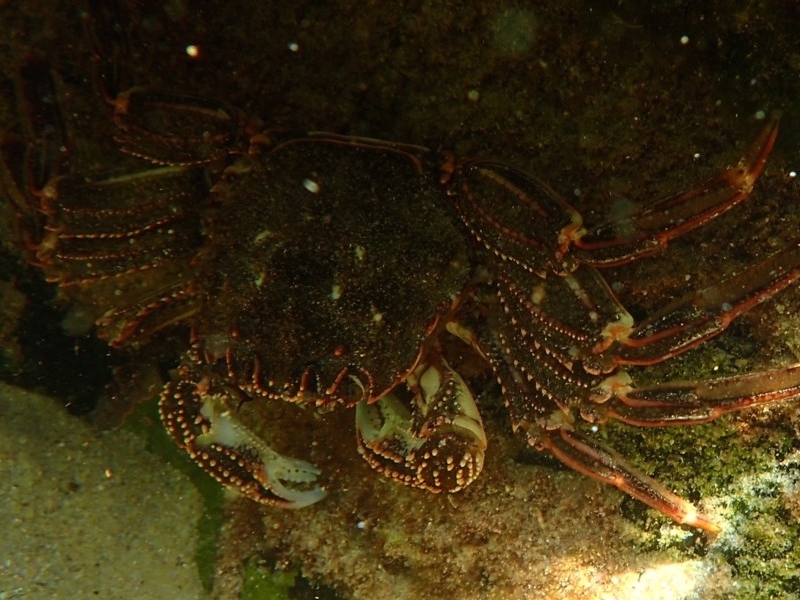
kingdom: Animalia
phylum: Arthropoda
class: Malacostraca
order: Decapoda
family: Plagusiidae
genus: Guinusia
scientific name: Guinusia chabrus
